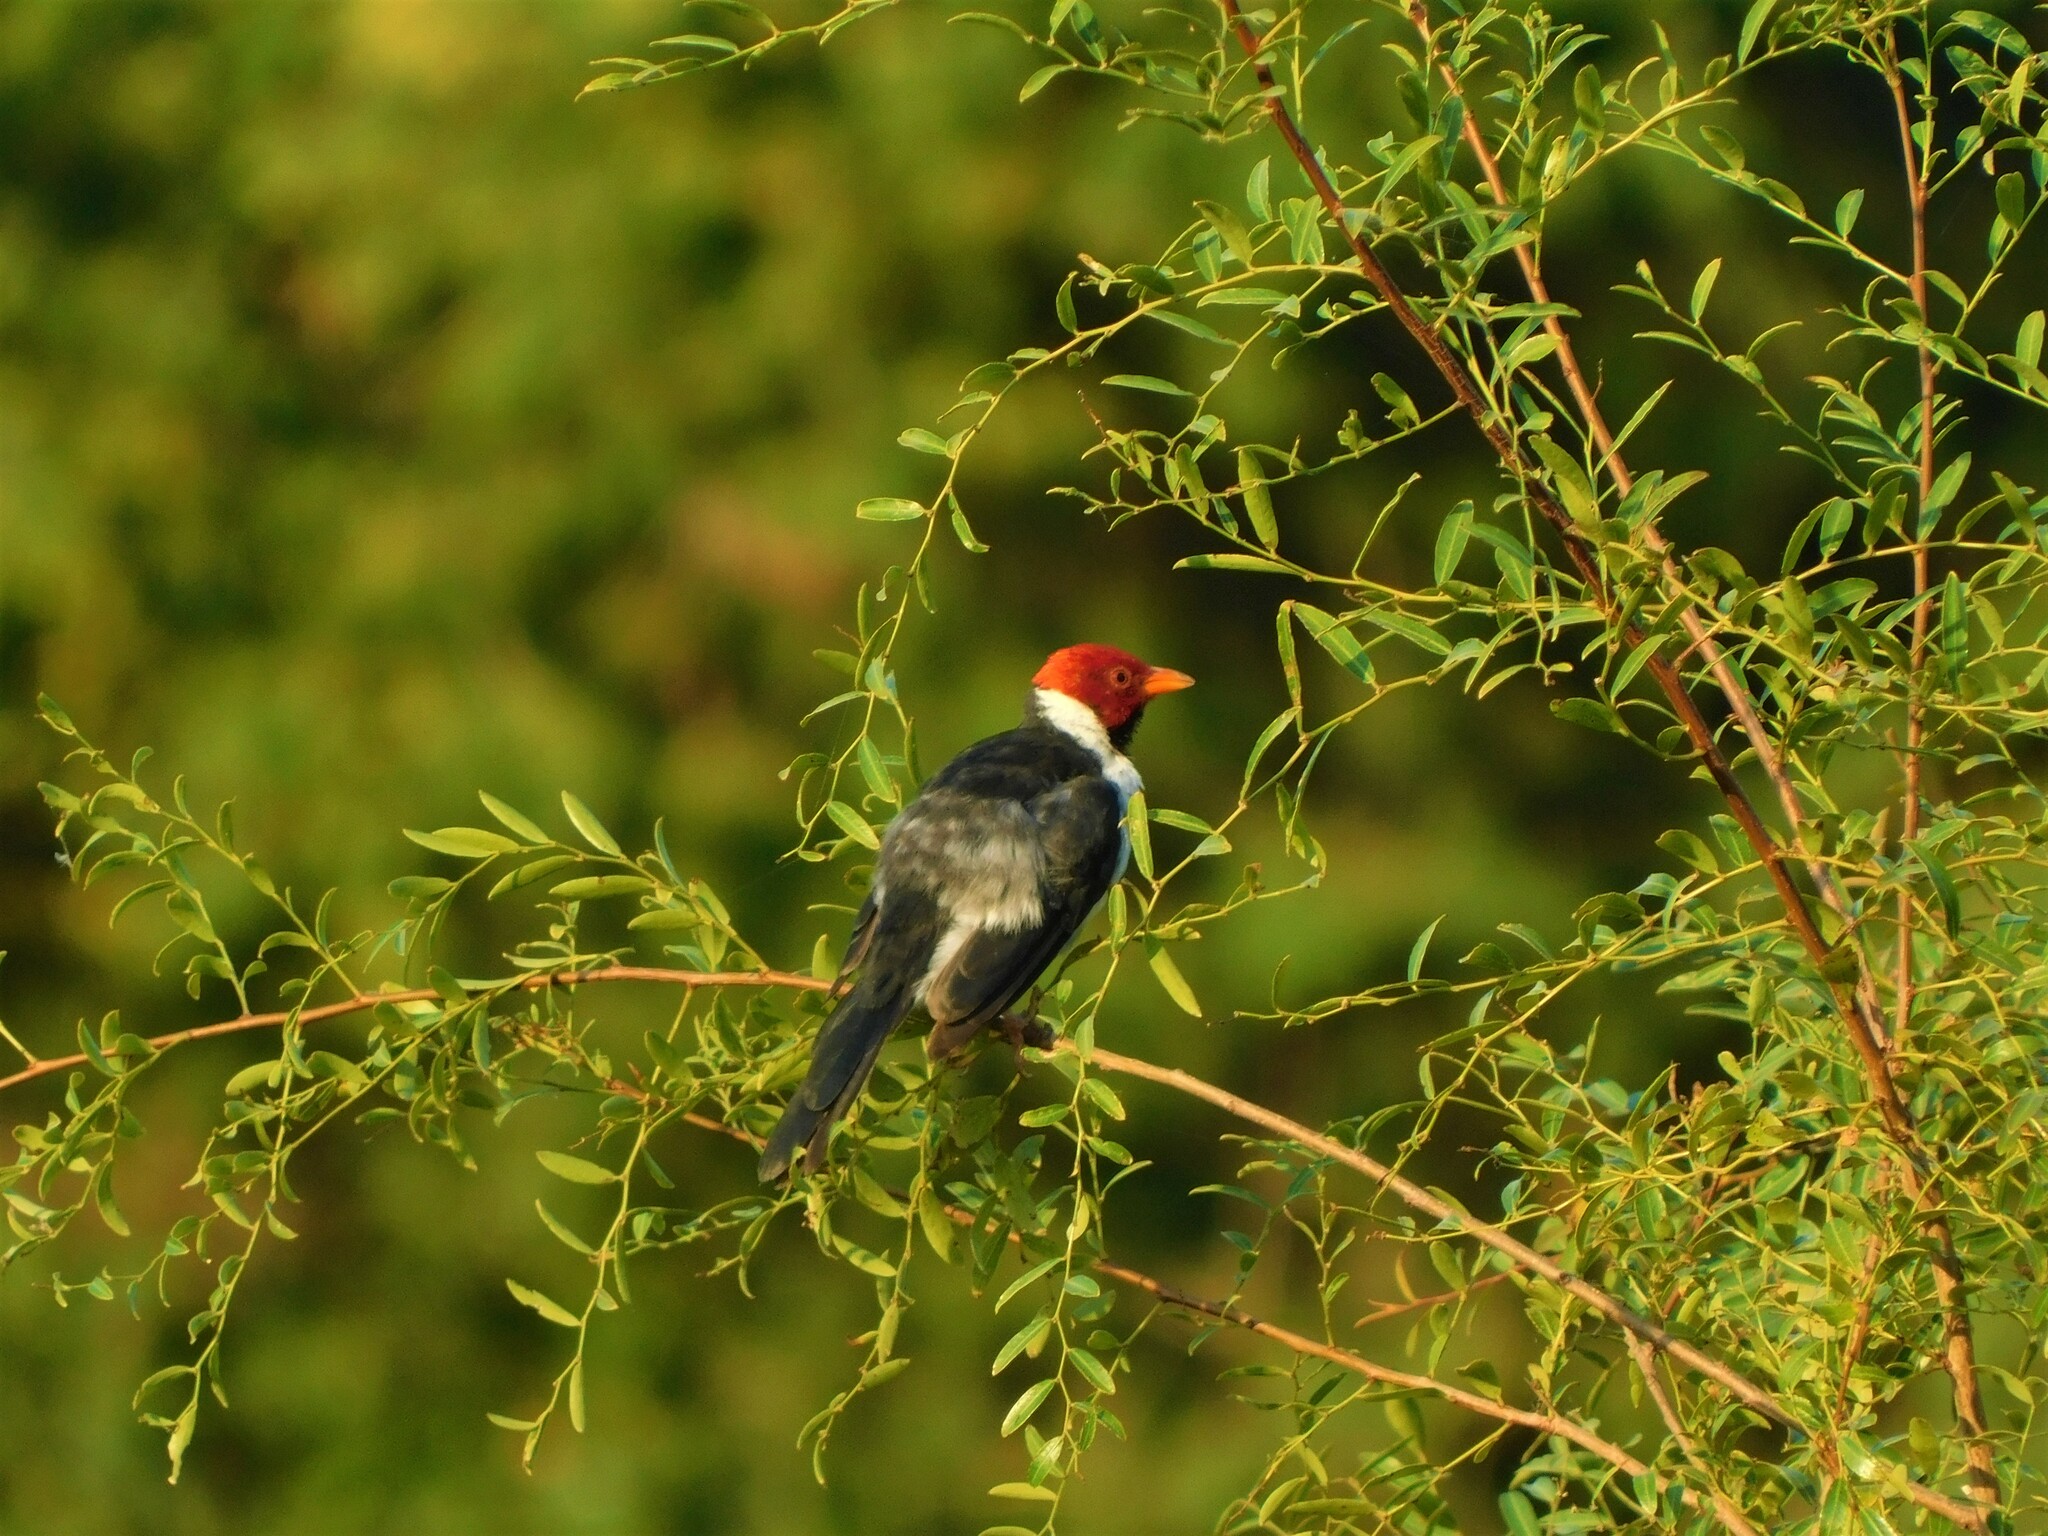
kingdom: Animalia
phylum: Chordata
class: Aves
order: Passeriformes
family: Thraupidae
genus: Paroaria
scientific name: Paroaria capitata
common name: Yellow-billed cardinal
